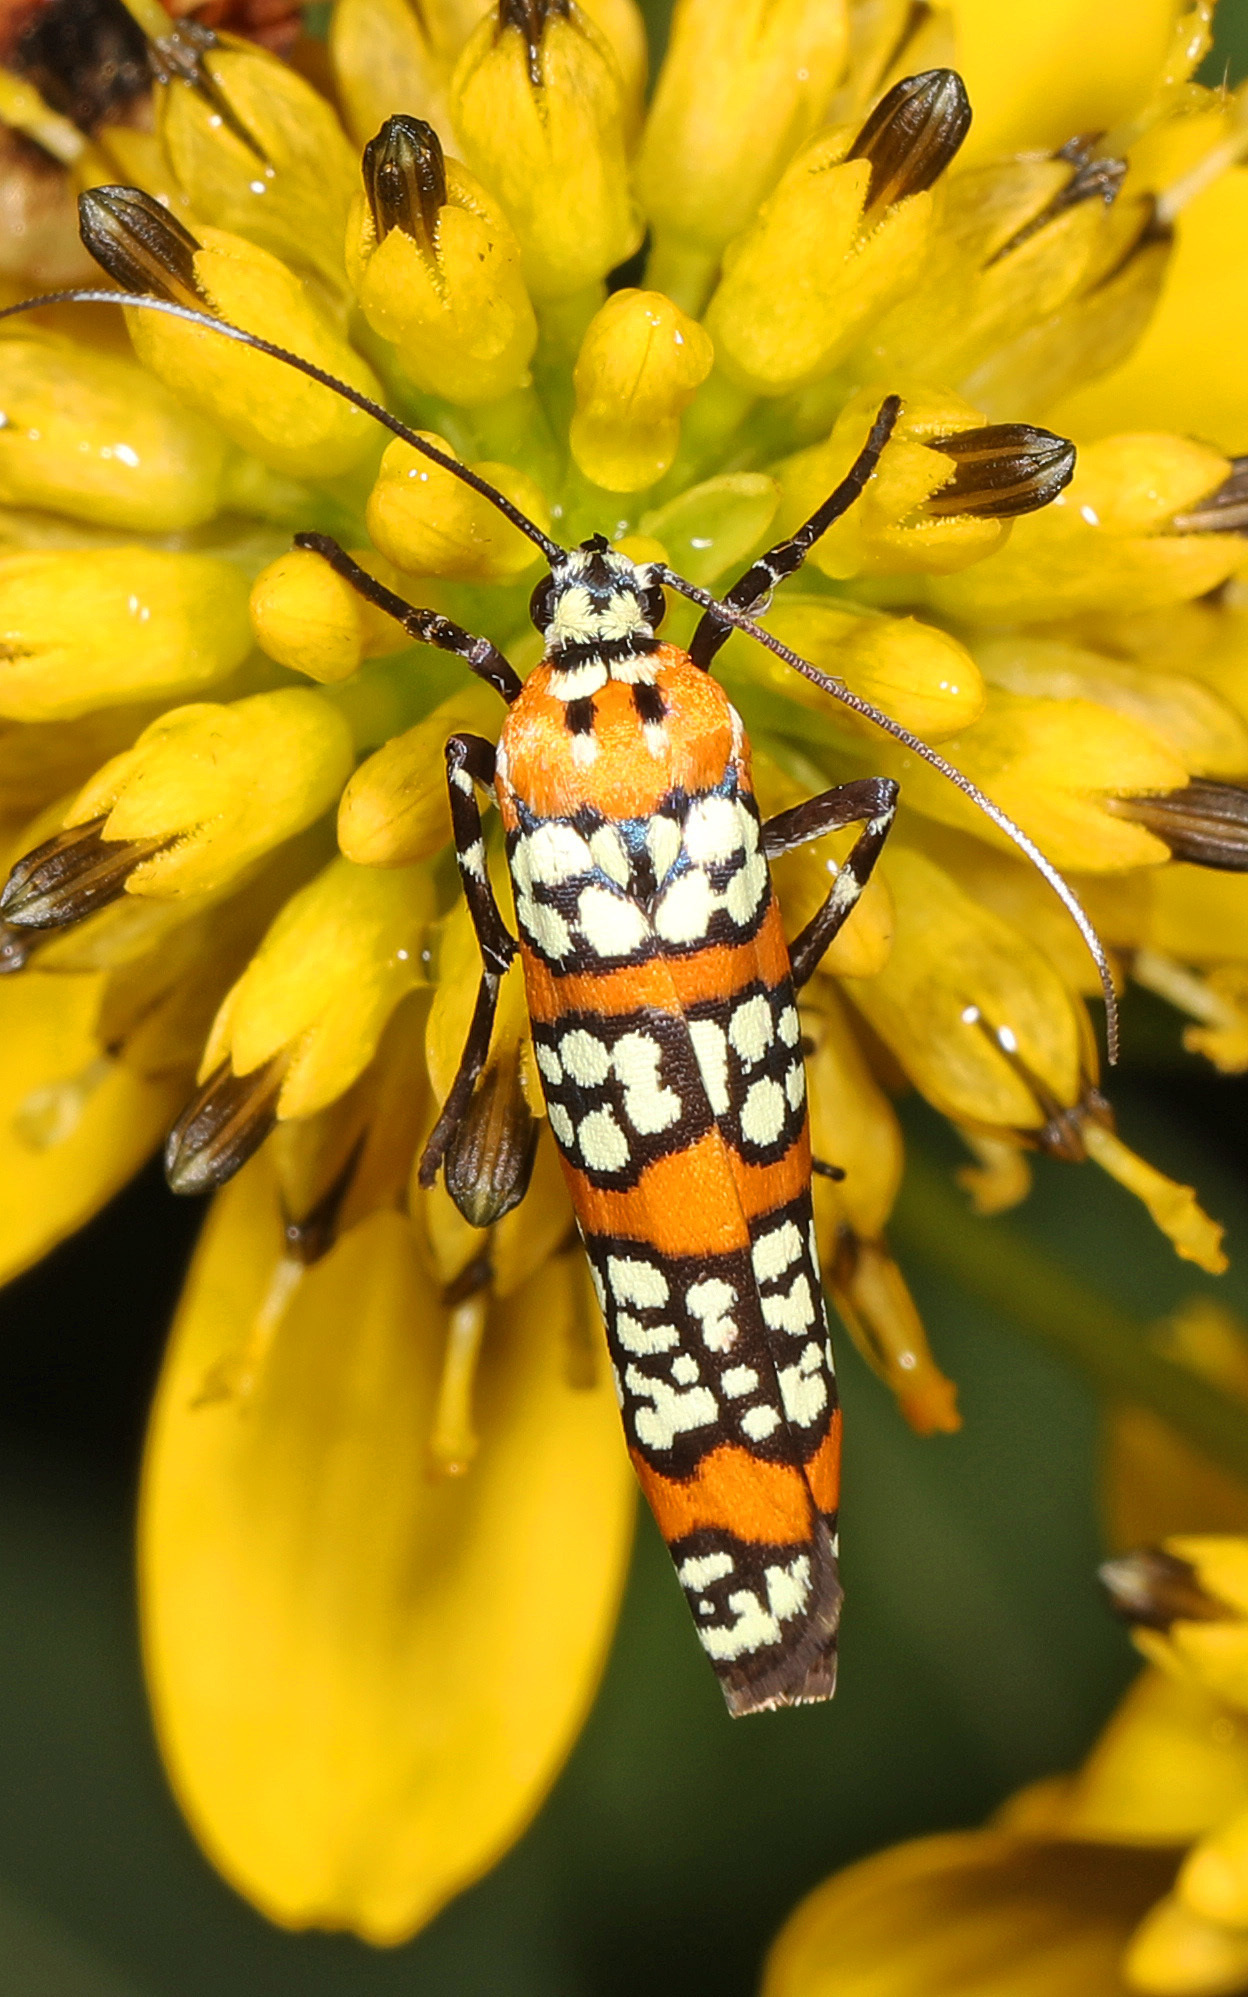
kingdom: Animalia
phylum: Arthropoda
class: Insecta
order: Lepidoptera
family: Attevidae
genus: Atteva
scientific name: Atteva punctella
